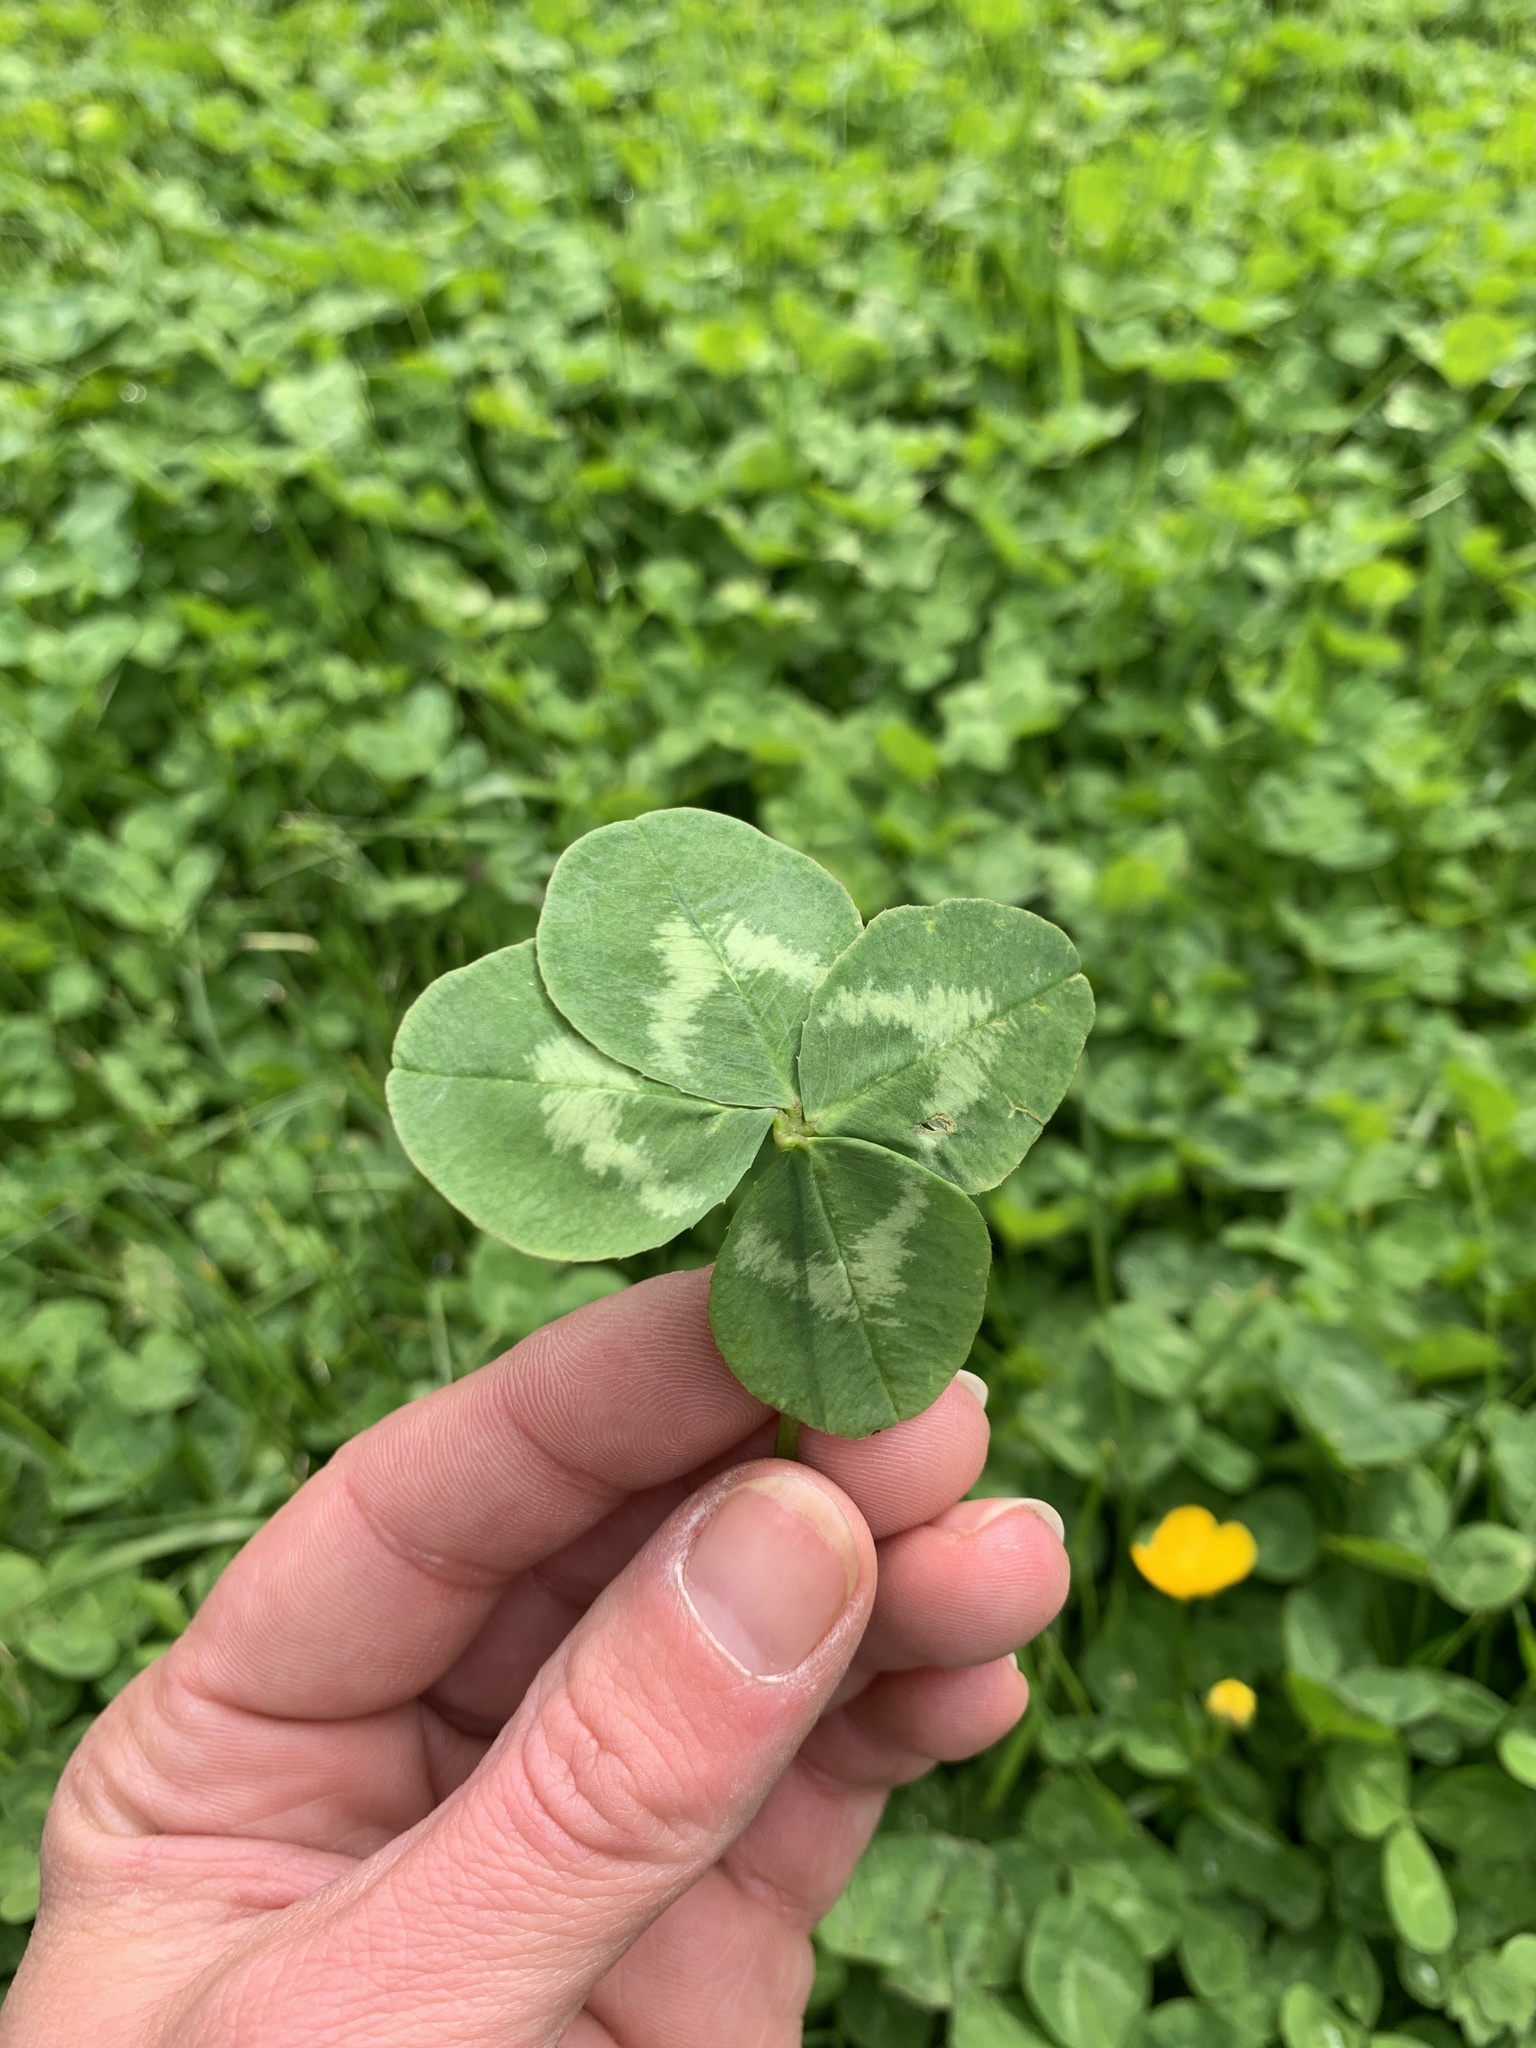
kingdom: Plantae
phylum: Tracheophyta
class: Magnoliopsida
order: Fabales
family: Fabaceae
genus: Trifolium
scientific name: Trifolium repens
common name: White clover
